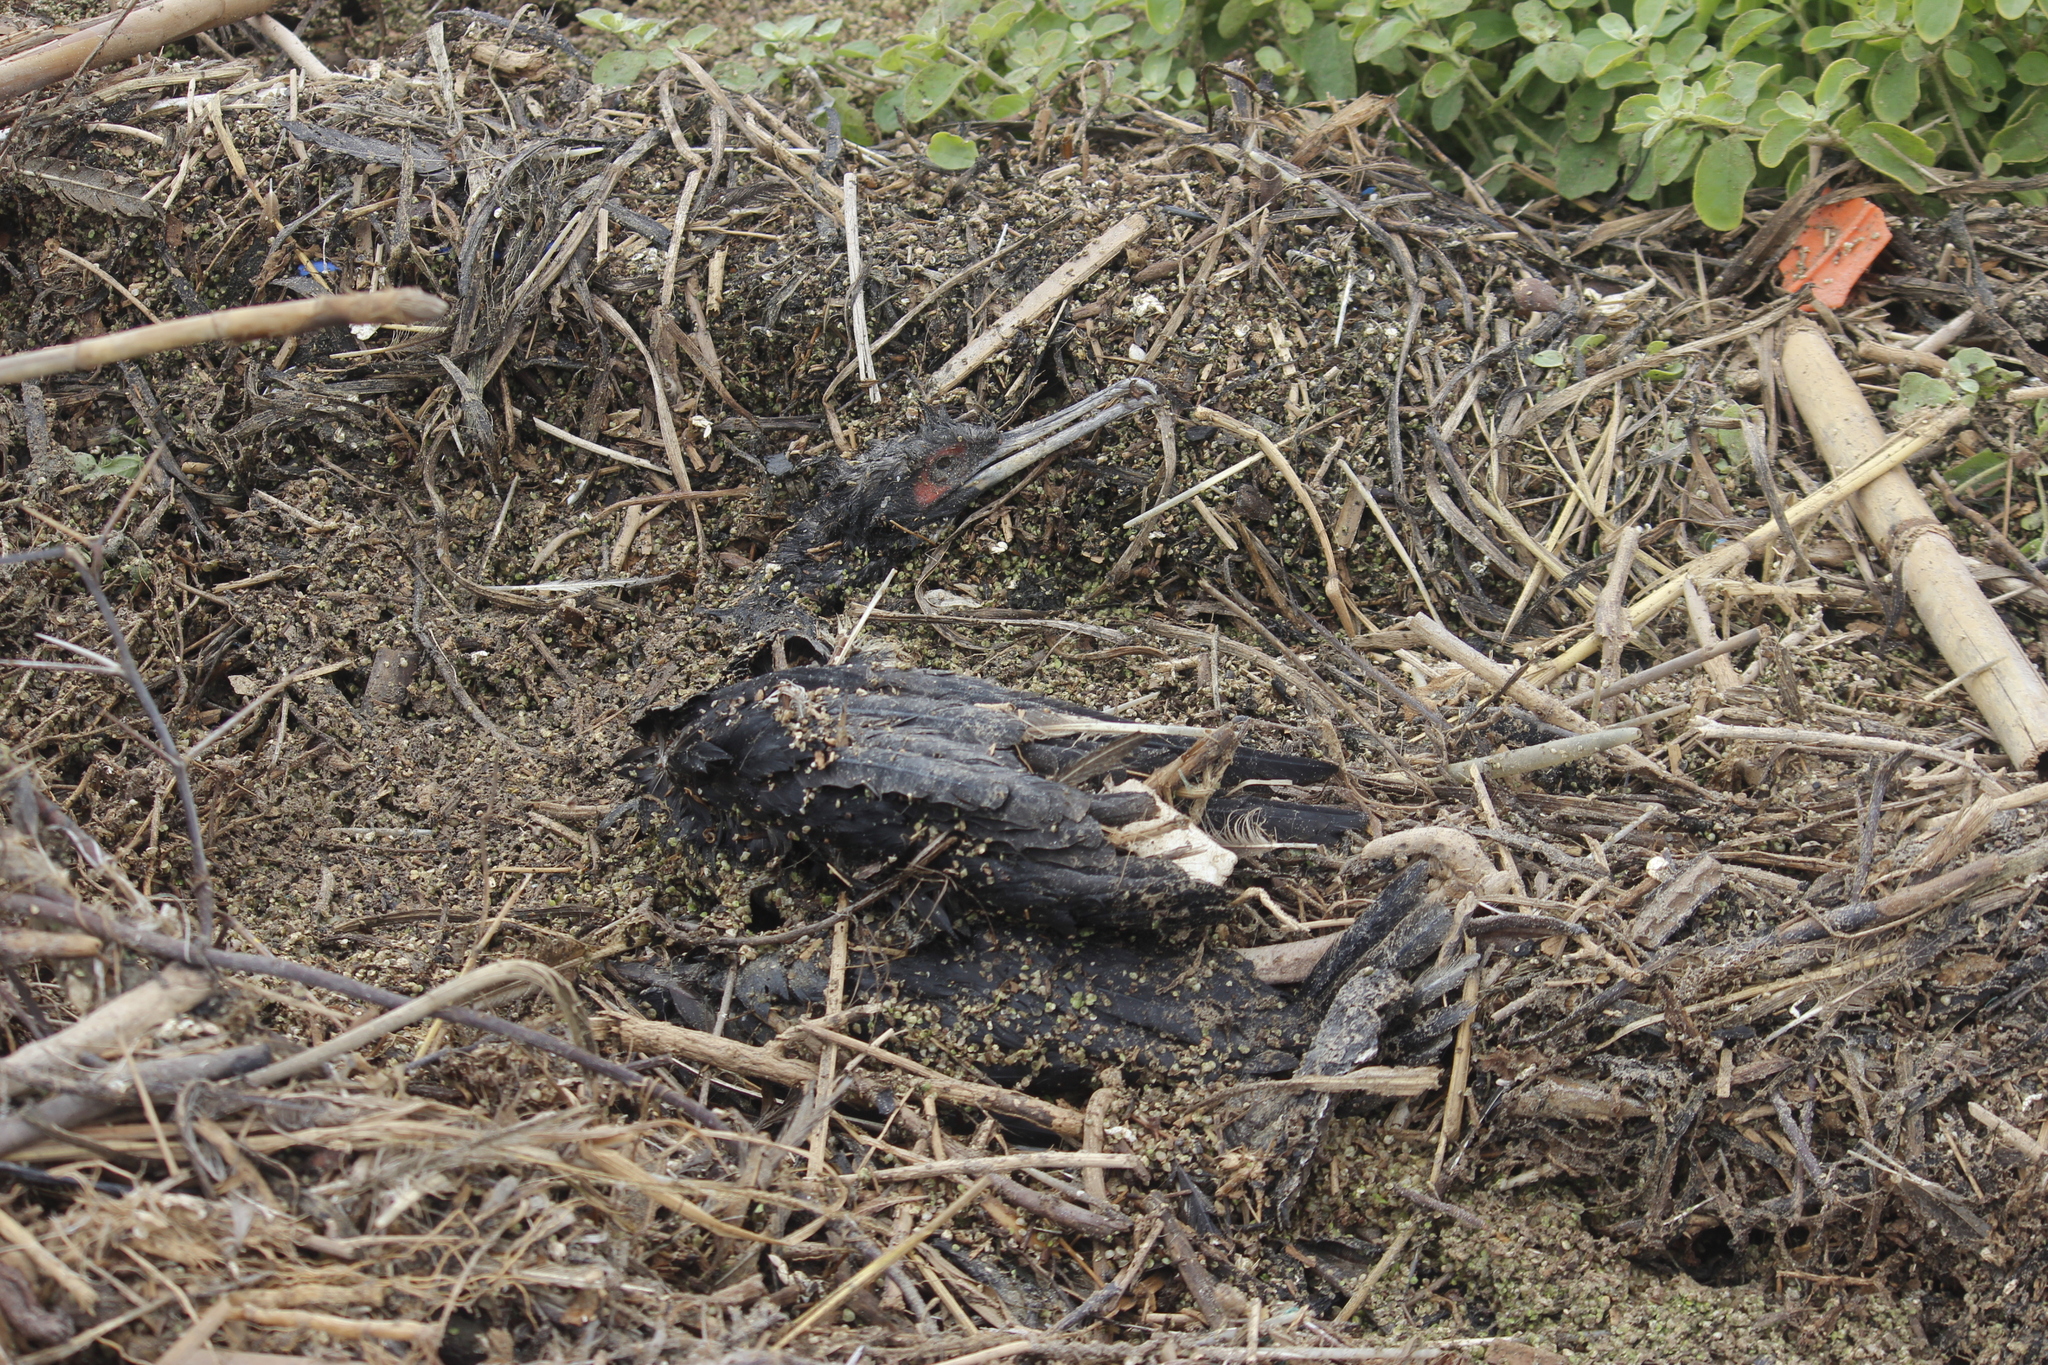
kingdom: Animalia
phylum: Chordata
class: Aves
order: Suliformes
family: Phalacrocoracidae
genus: Leucocarbo
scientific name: Leucocarbo bougainvillii
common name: Guanay cormorant
